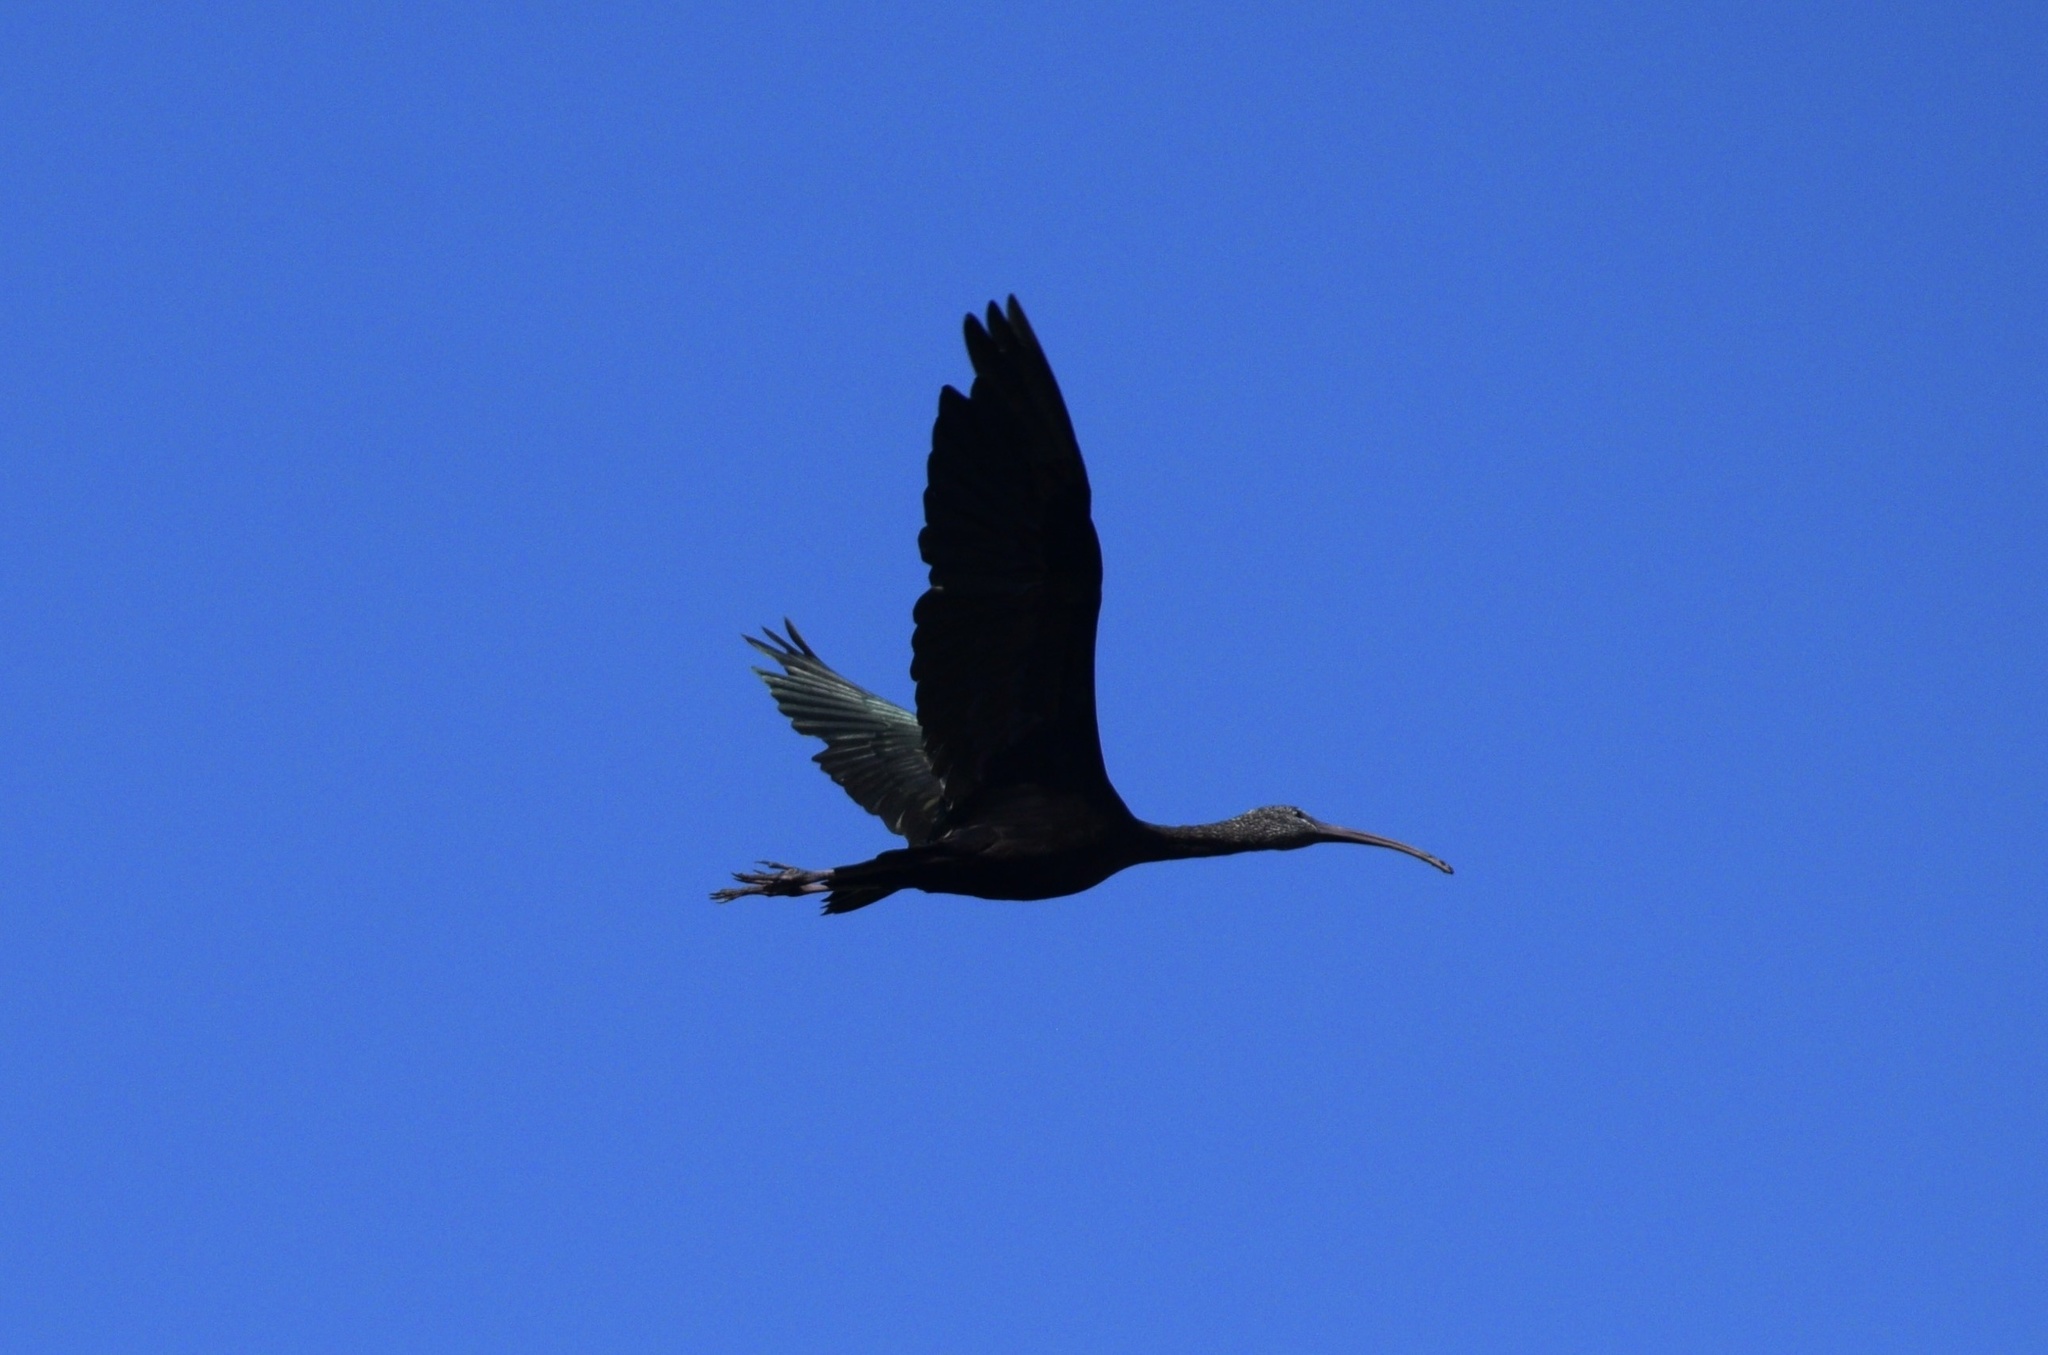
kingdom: Animalia
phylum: Chordata
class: Aves
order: Pelecaniformes
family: Threskiornithidae
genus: Plegadis
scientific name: Plegadis falcinellus
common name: Glossy ibis
